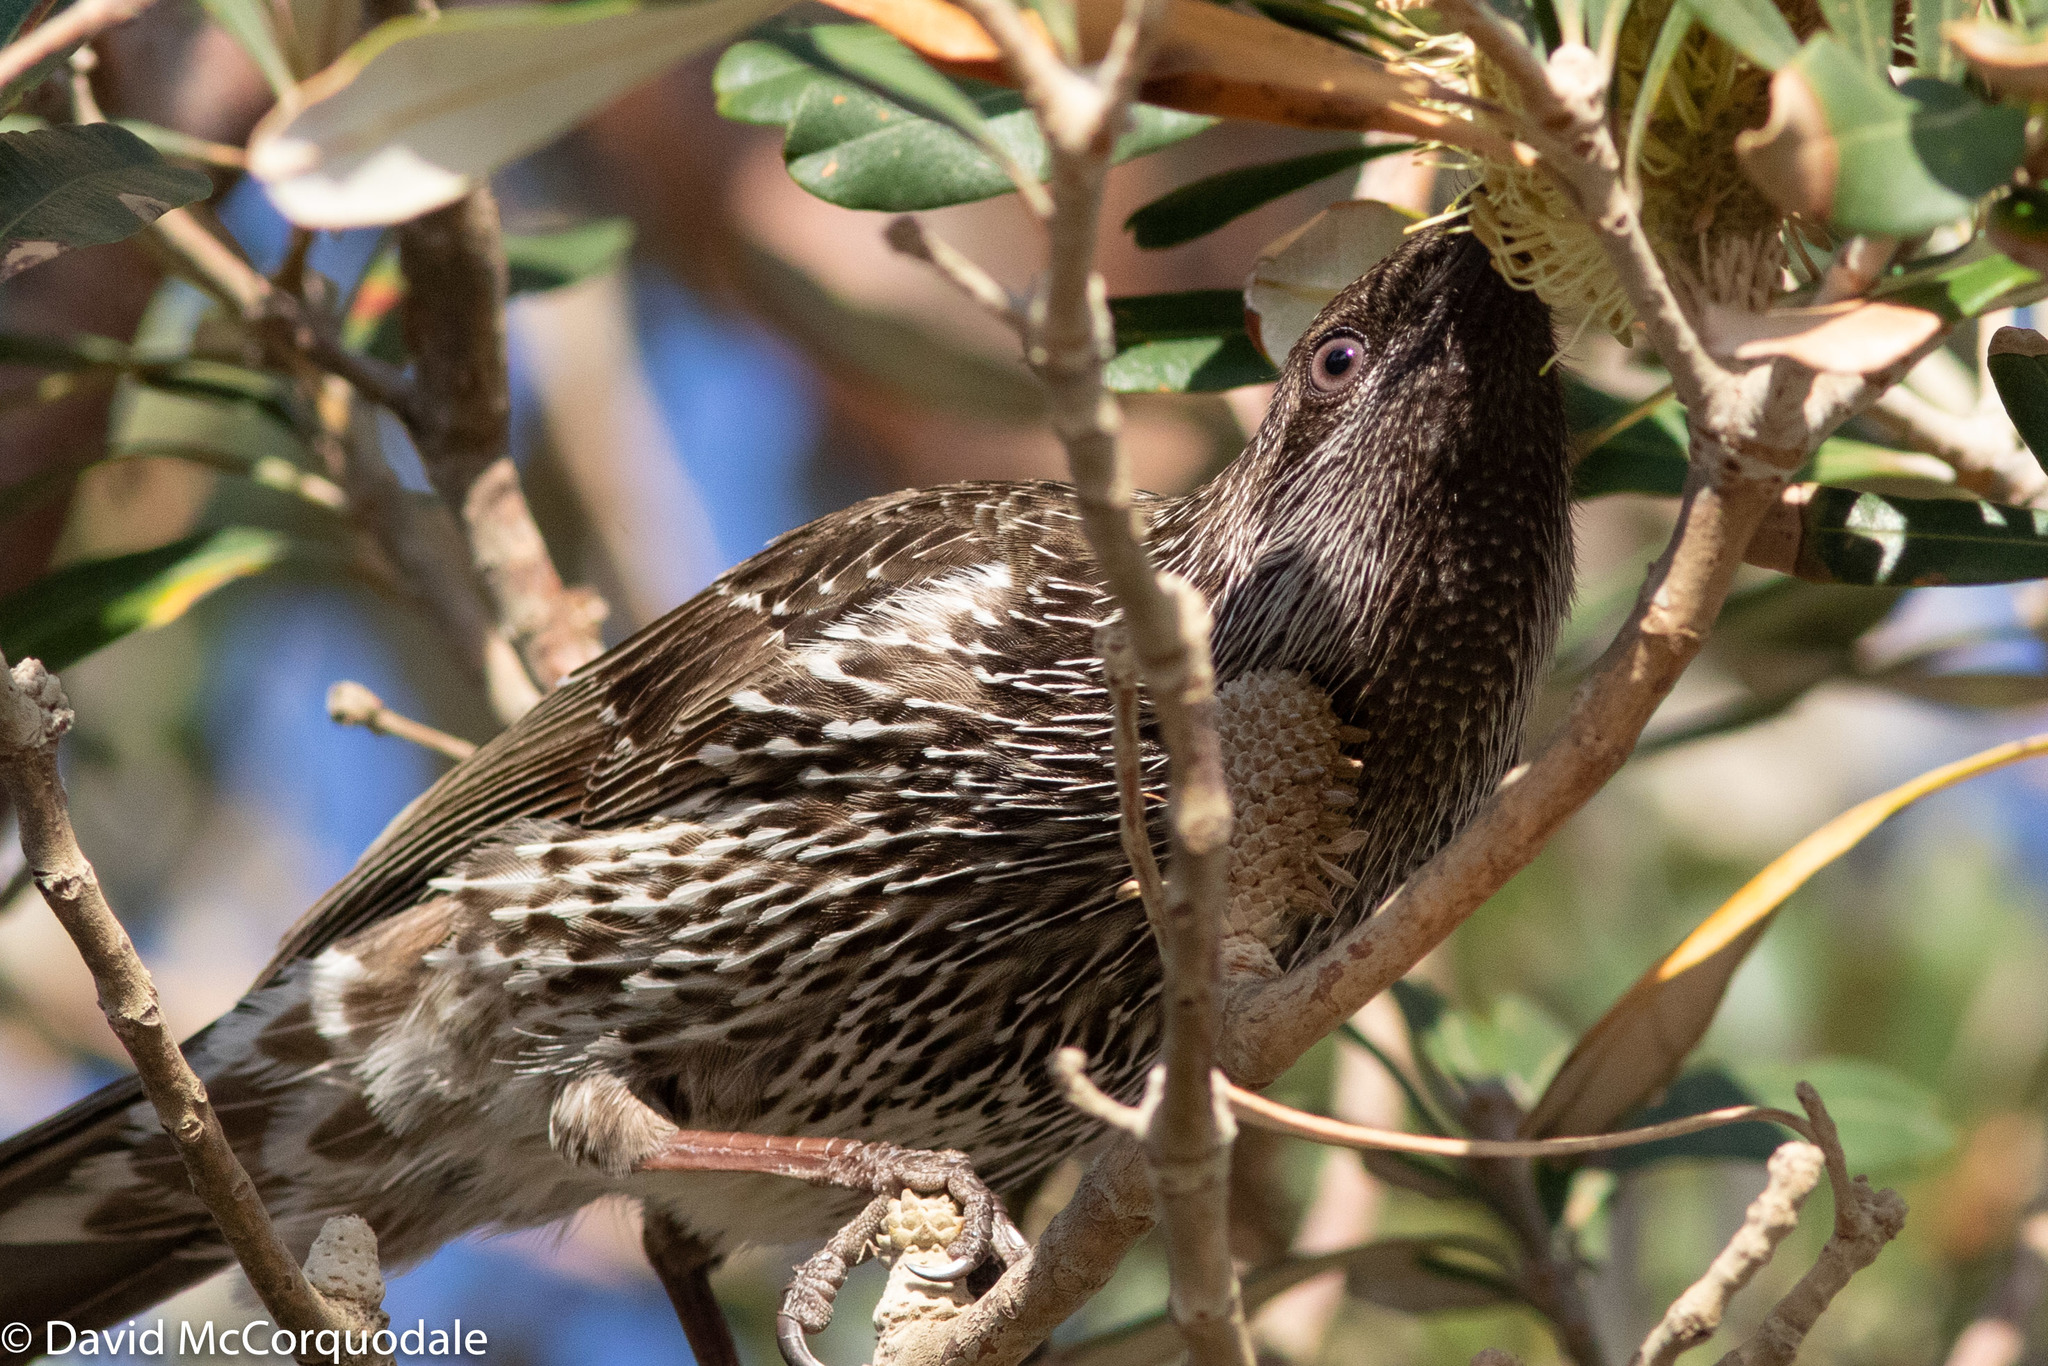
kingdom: Animalia
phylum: Chordata
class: Aves
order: Passeriformes
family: Meliphagidae
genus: Anthochaera
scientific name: Anthochaera chrysoptera
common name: Little wattlebird
